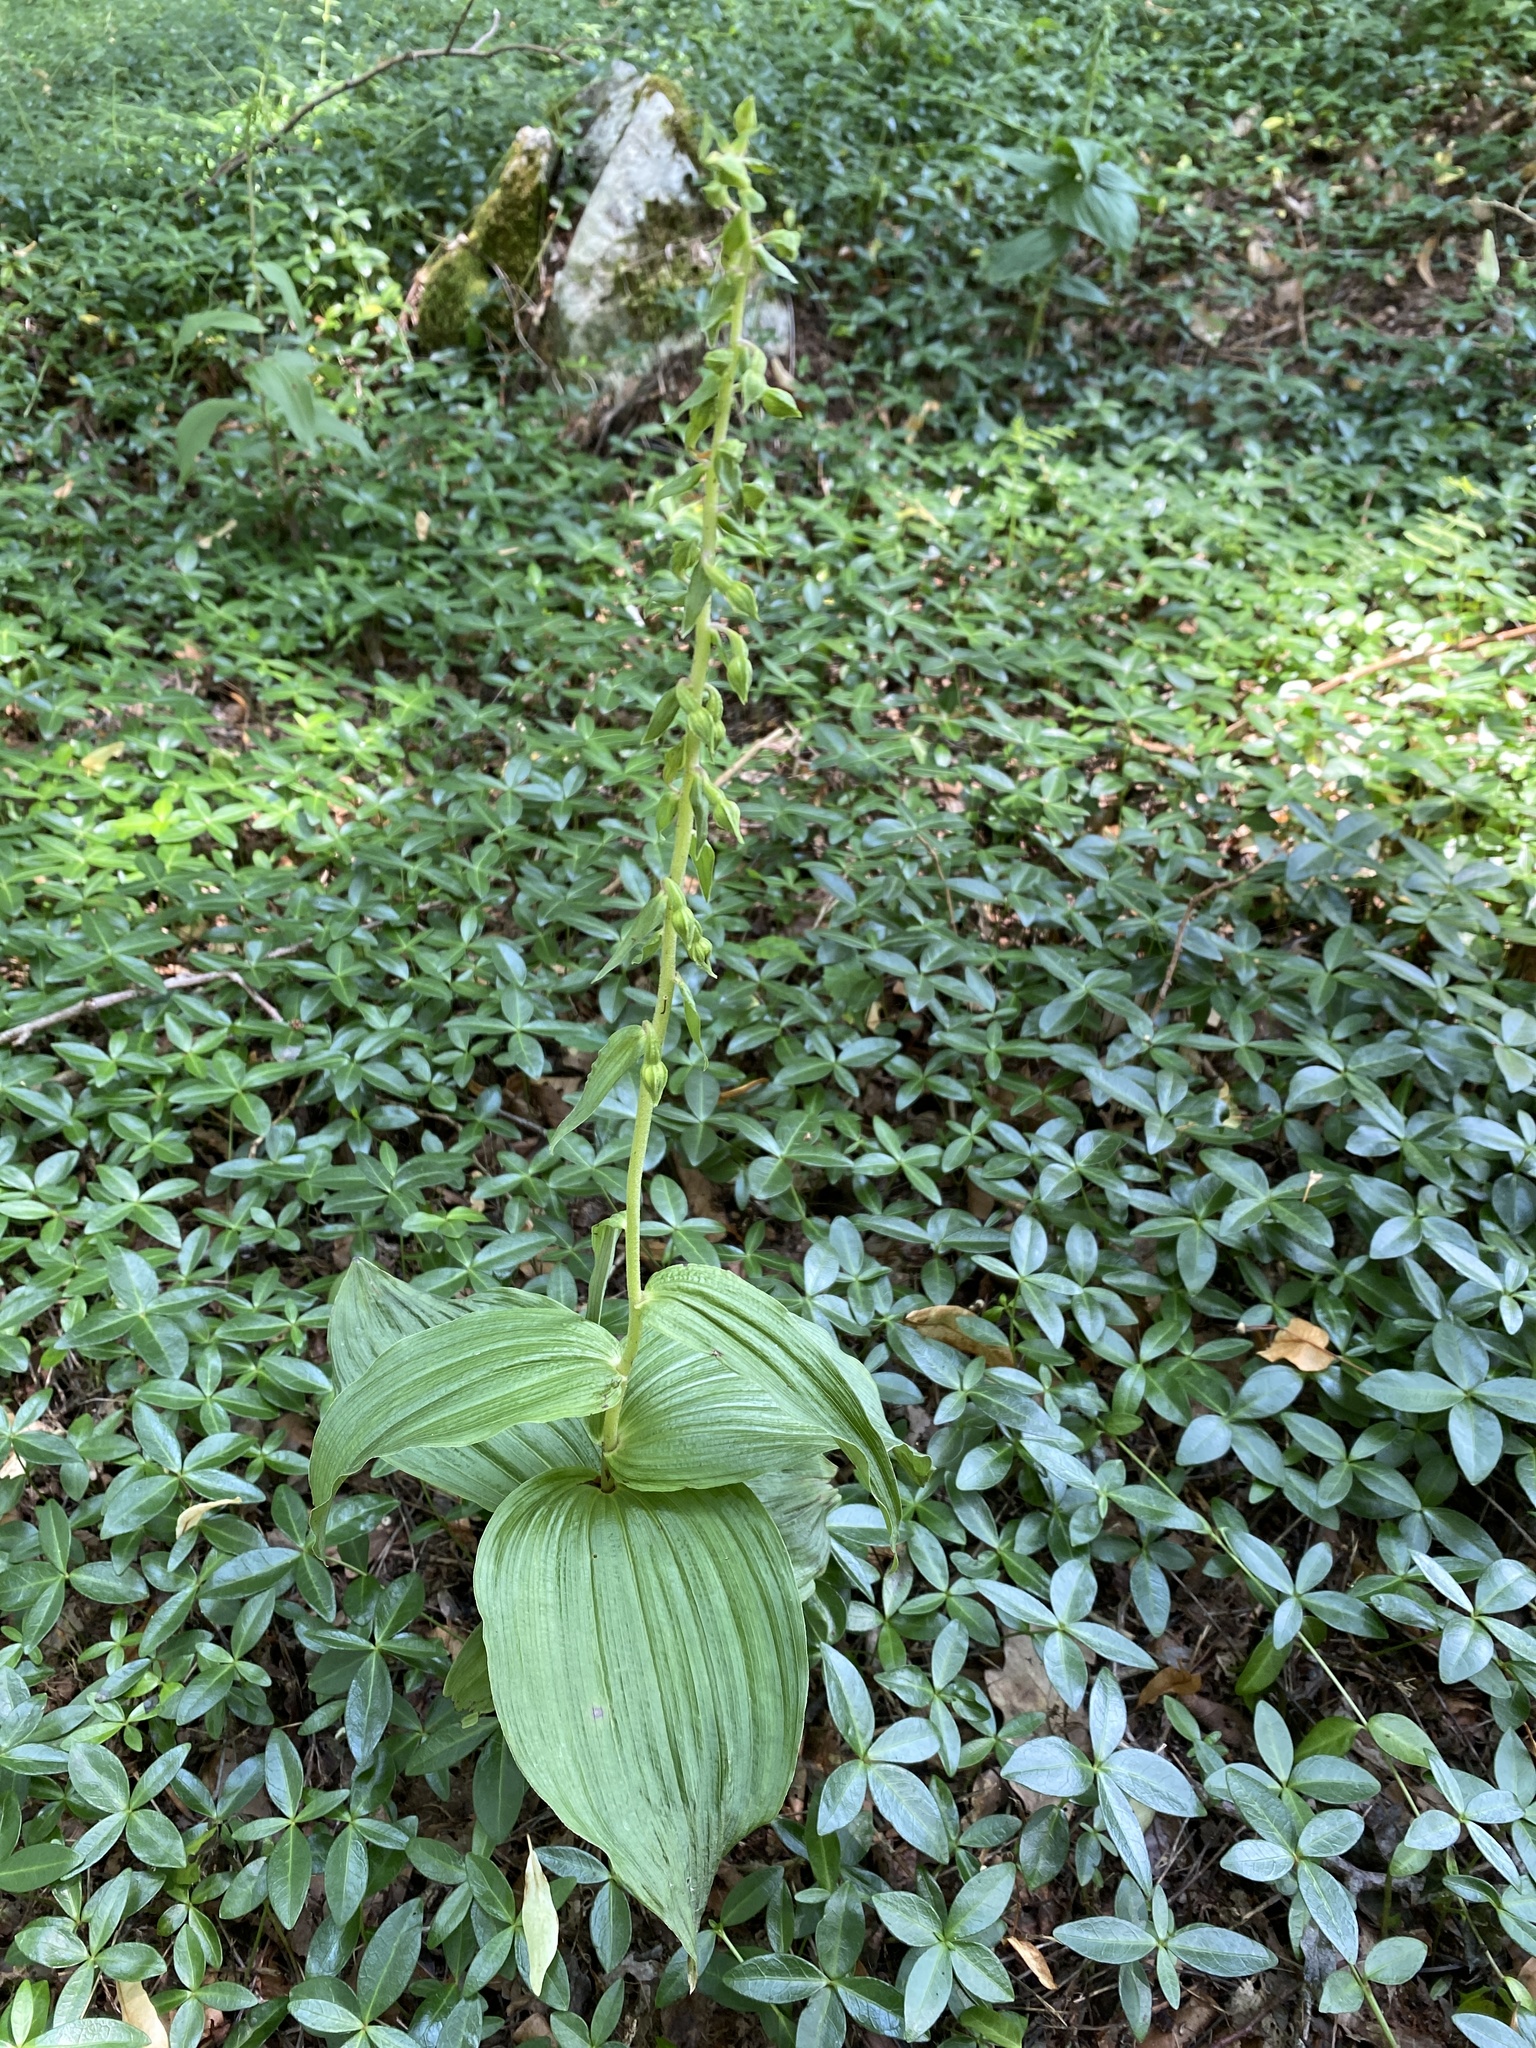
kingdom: Plantae
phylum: Tracheophyta
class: Liliopsida
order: Asparagales
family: Orchidaceae
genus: Epipactis
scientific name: Epipactis helleborine
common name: Broad-leaved helleborine
